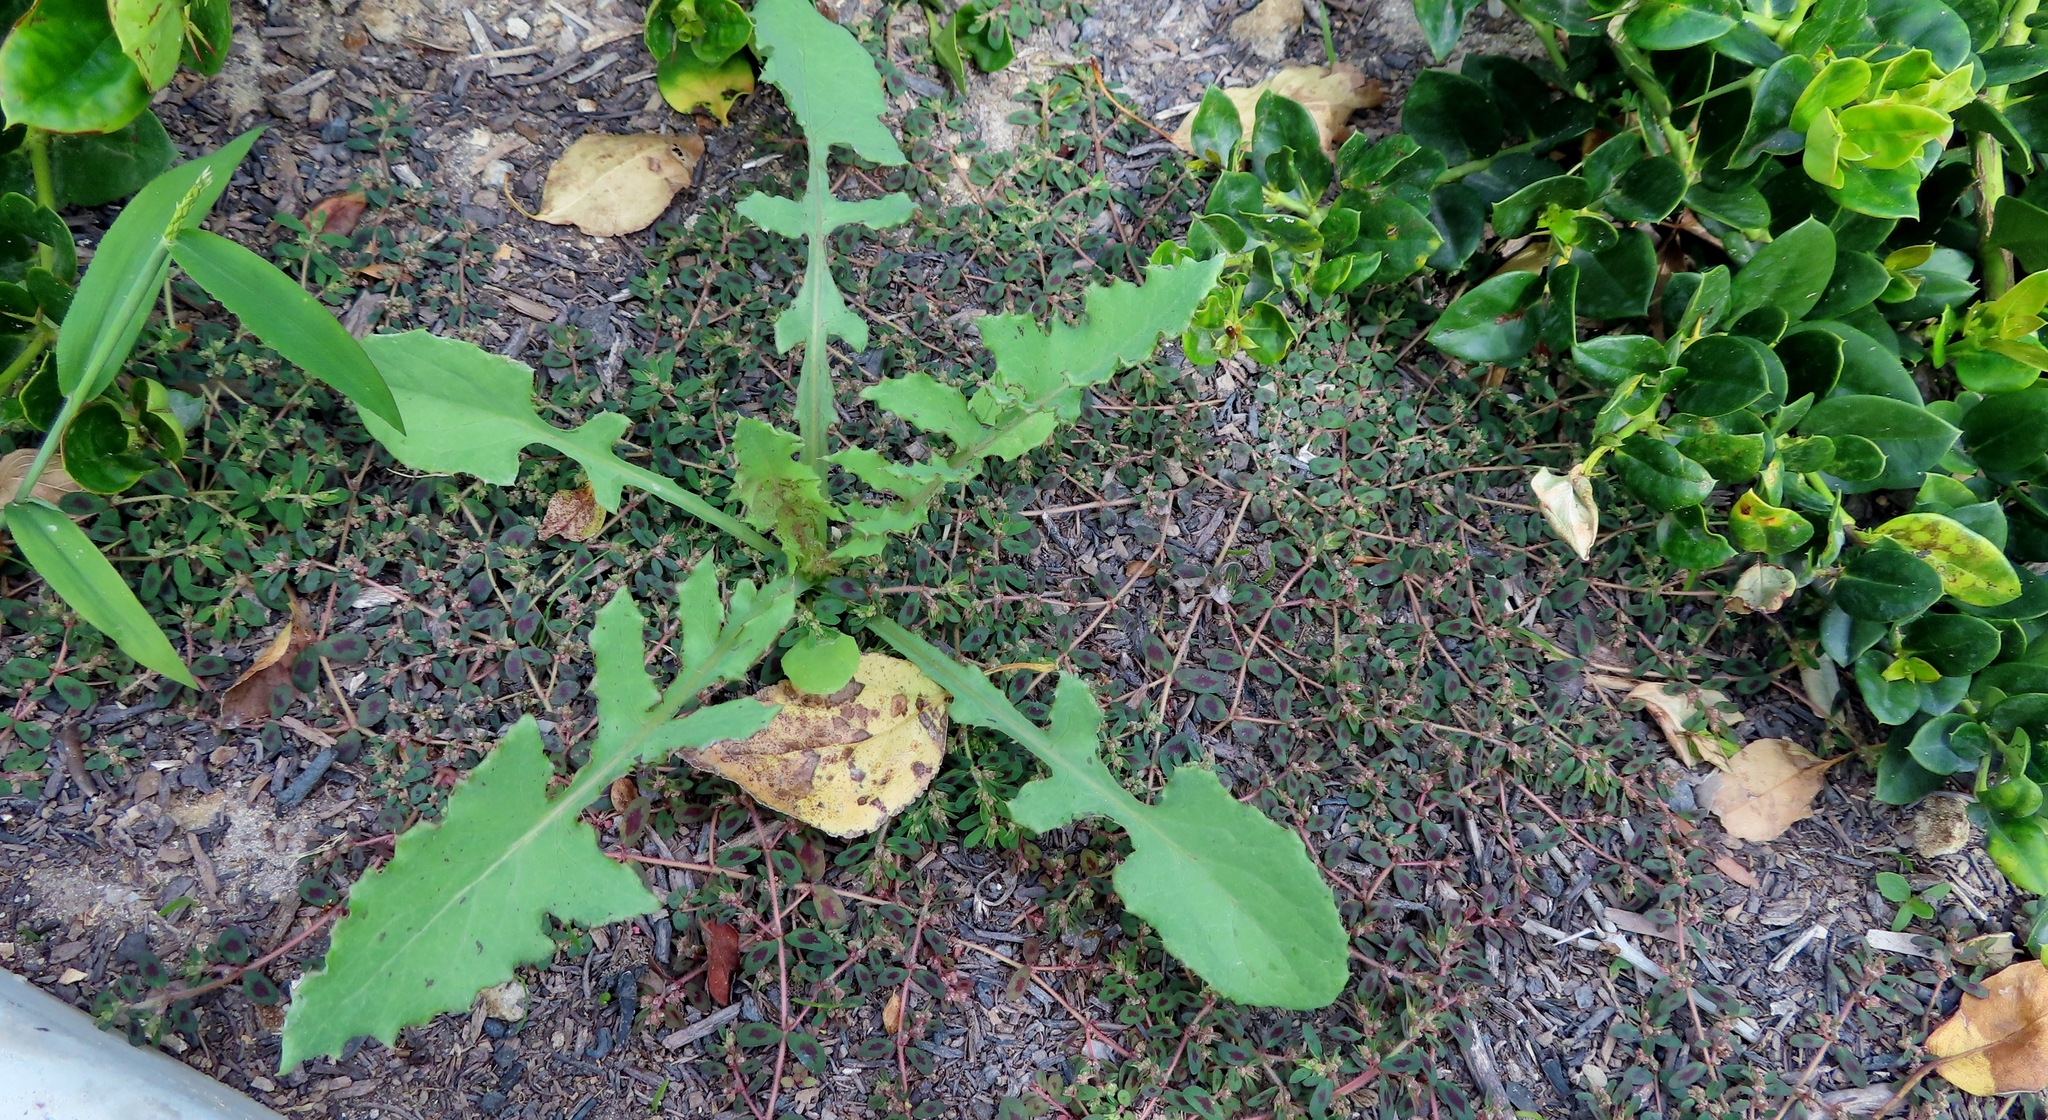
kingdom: Plantae
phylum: Tracheophyta
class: Magnoliopsida
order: Asterales
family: Asteraceae
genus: Sonchus
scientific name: Sonchus oleraceus
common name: Common sowthistle
